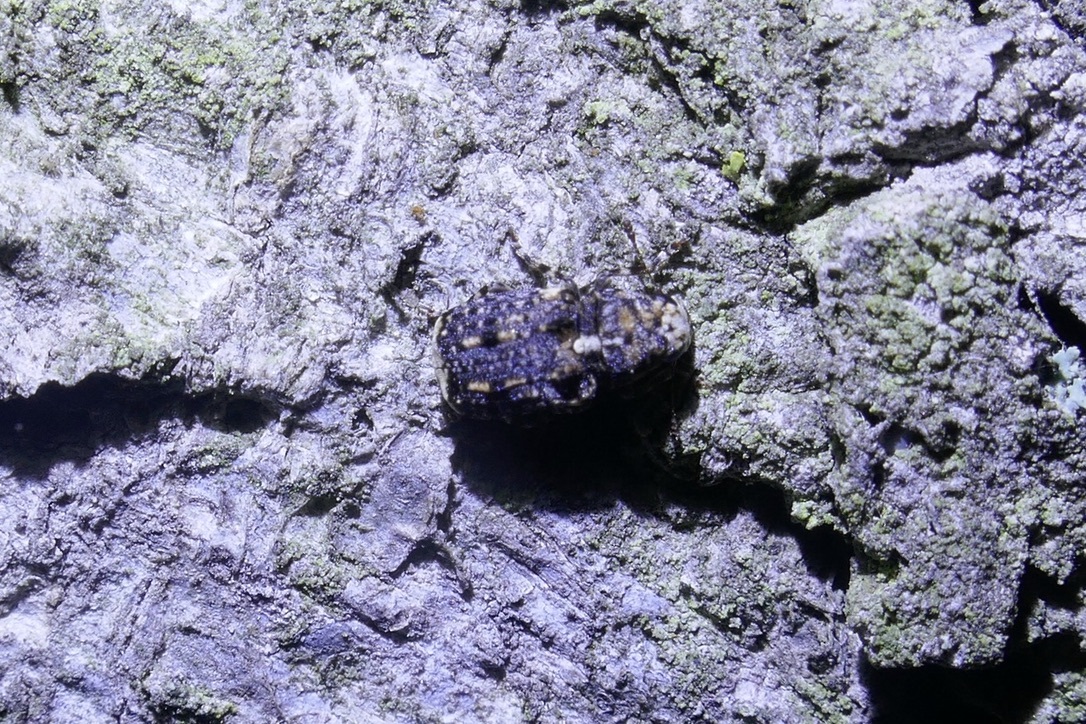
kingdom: Animalia
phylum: Arthropoda
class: Insecta
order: Coleoptera
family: Anthribidae
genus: Dissoleucas
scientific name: Dissoleucas niveirostris
